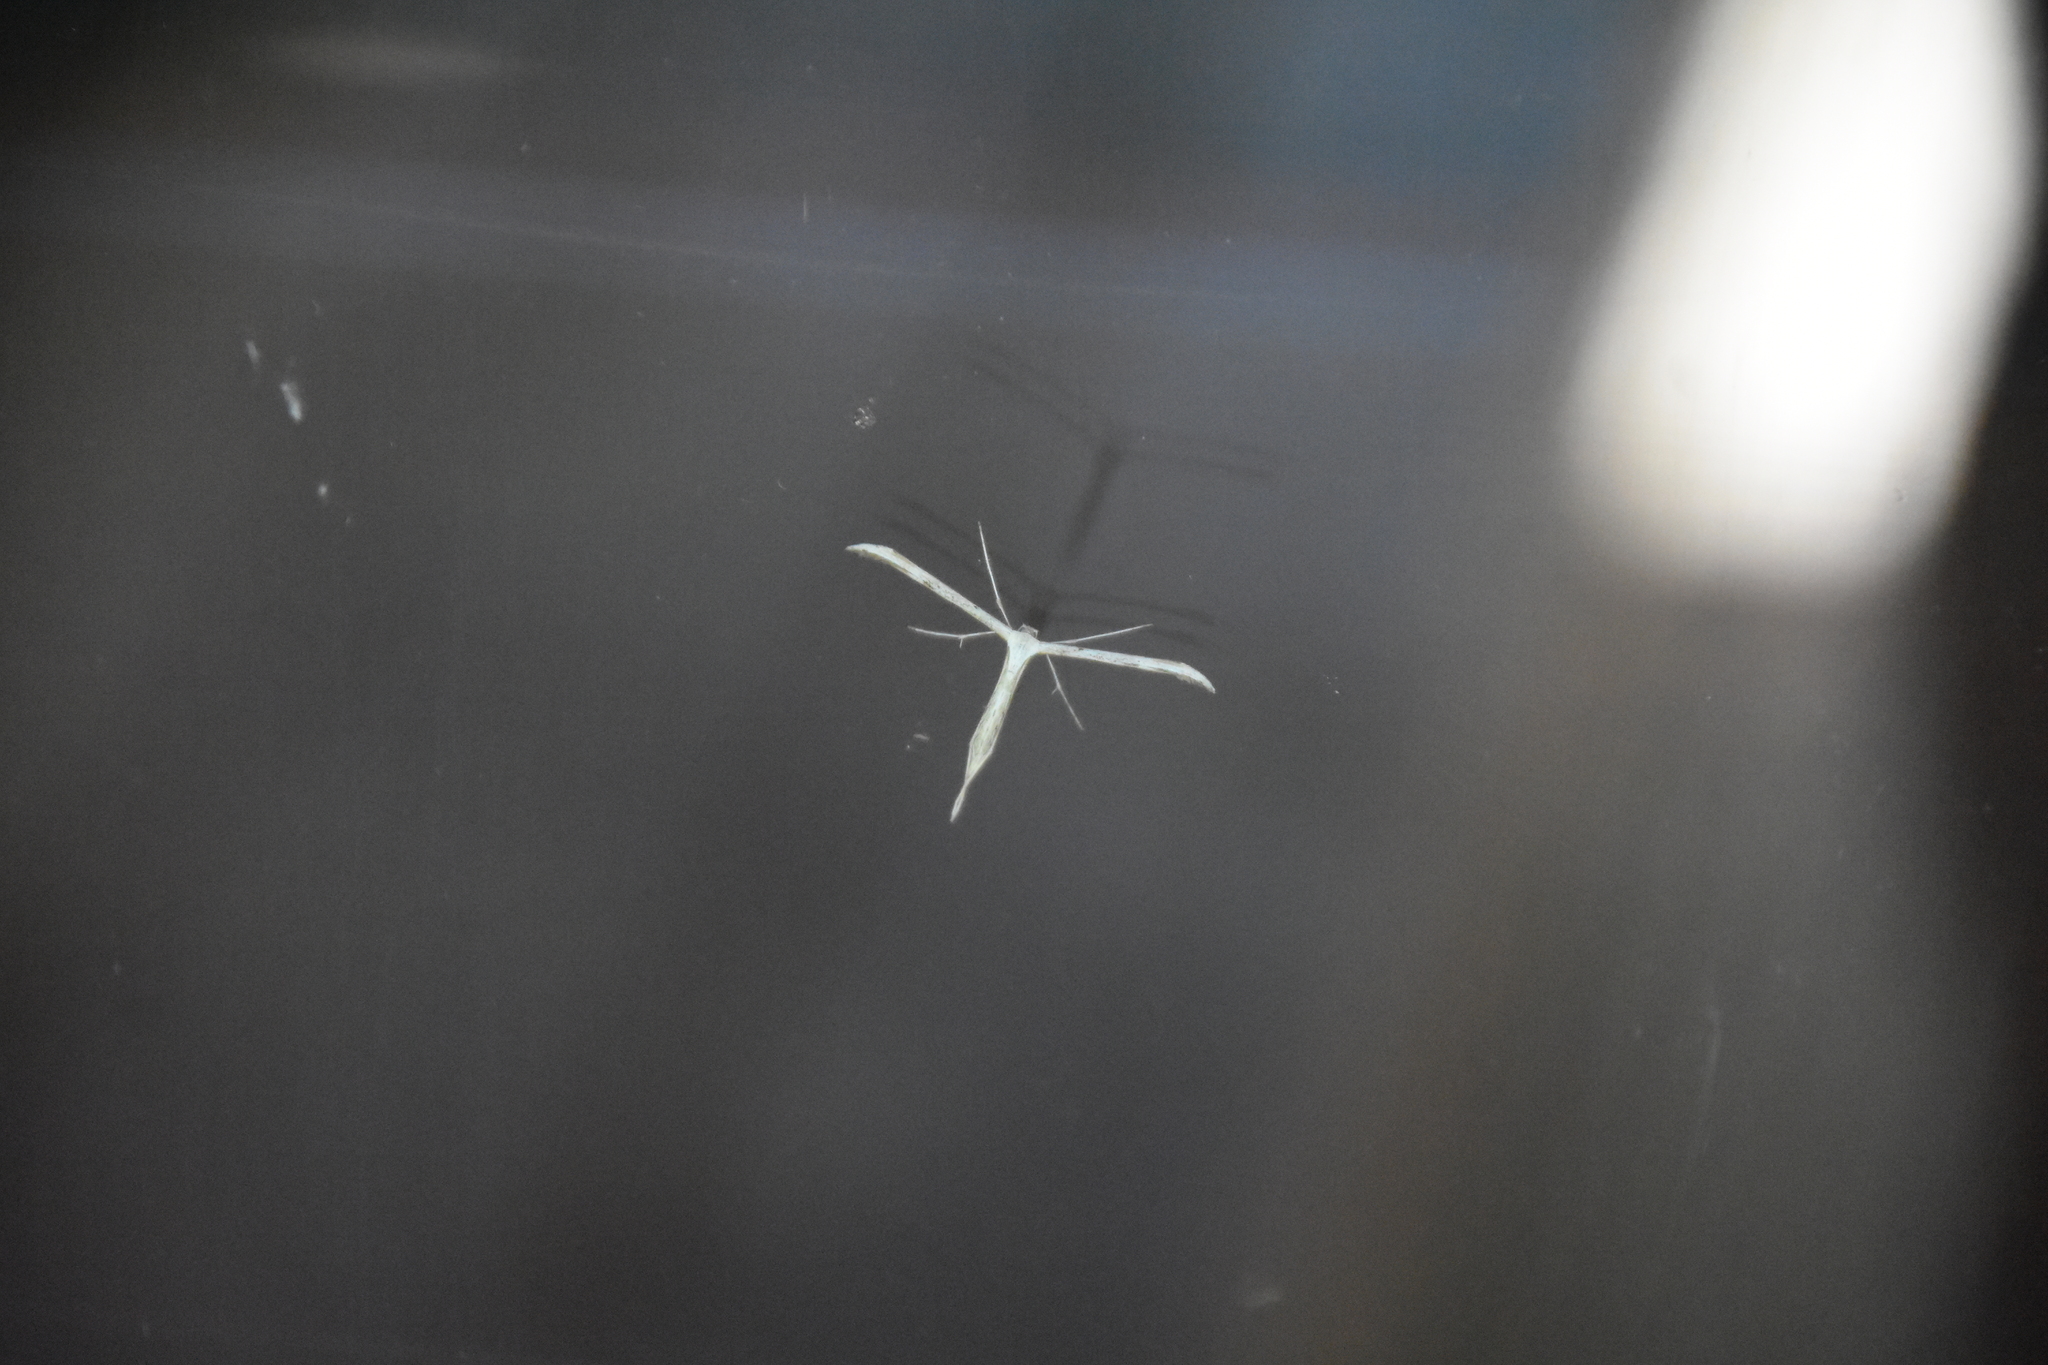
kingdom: Animalia
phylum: Arthropoda
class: Insecta
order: Lepidoptera
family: Pterophoridae
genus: Emmelina
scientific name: Emmelina monodactyla
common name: Common plume
